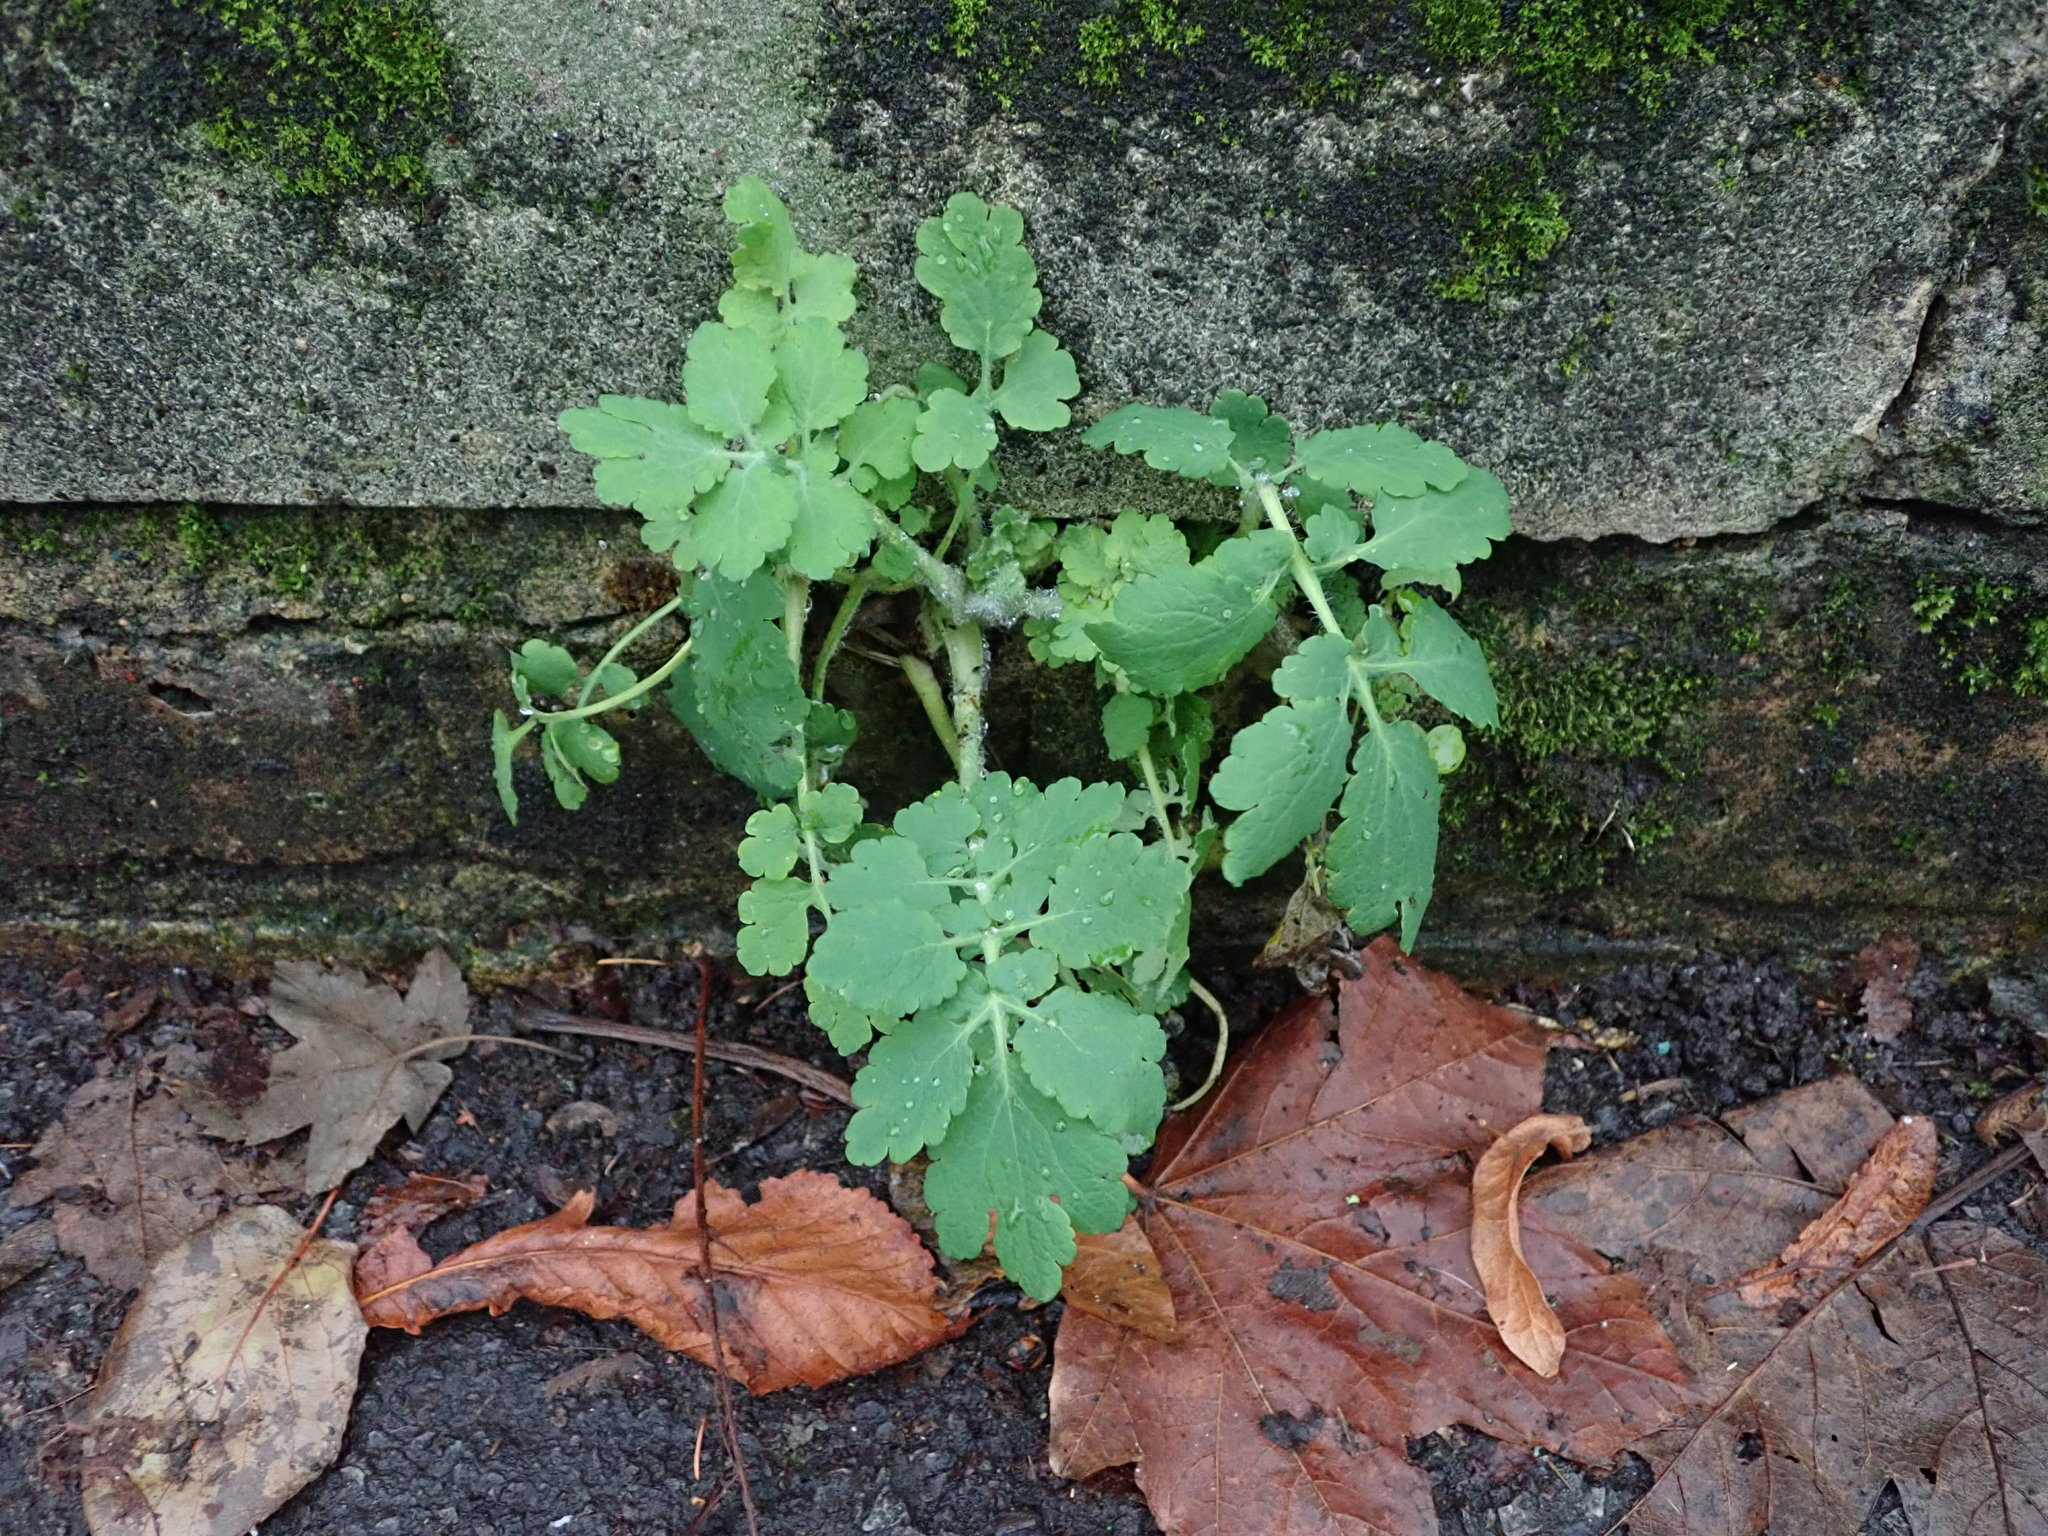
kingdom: Plantae
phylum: Tracheophyta
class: Magnoliopsida
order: Ranunculales
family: Papaveraceae
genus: Chelidonium
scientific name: Chelidonium majus
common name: Greater celandine
